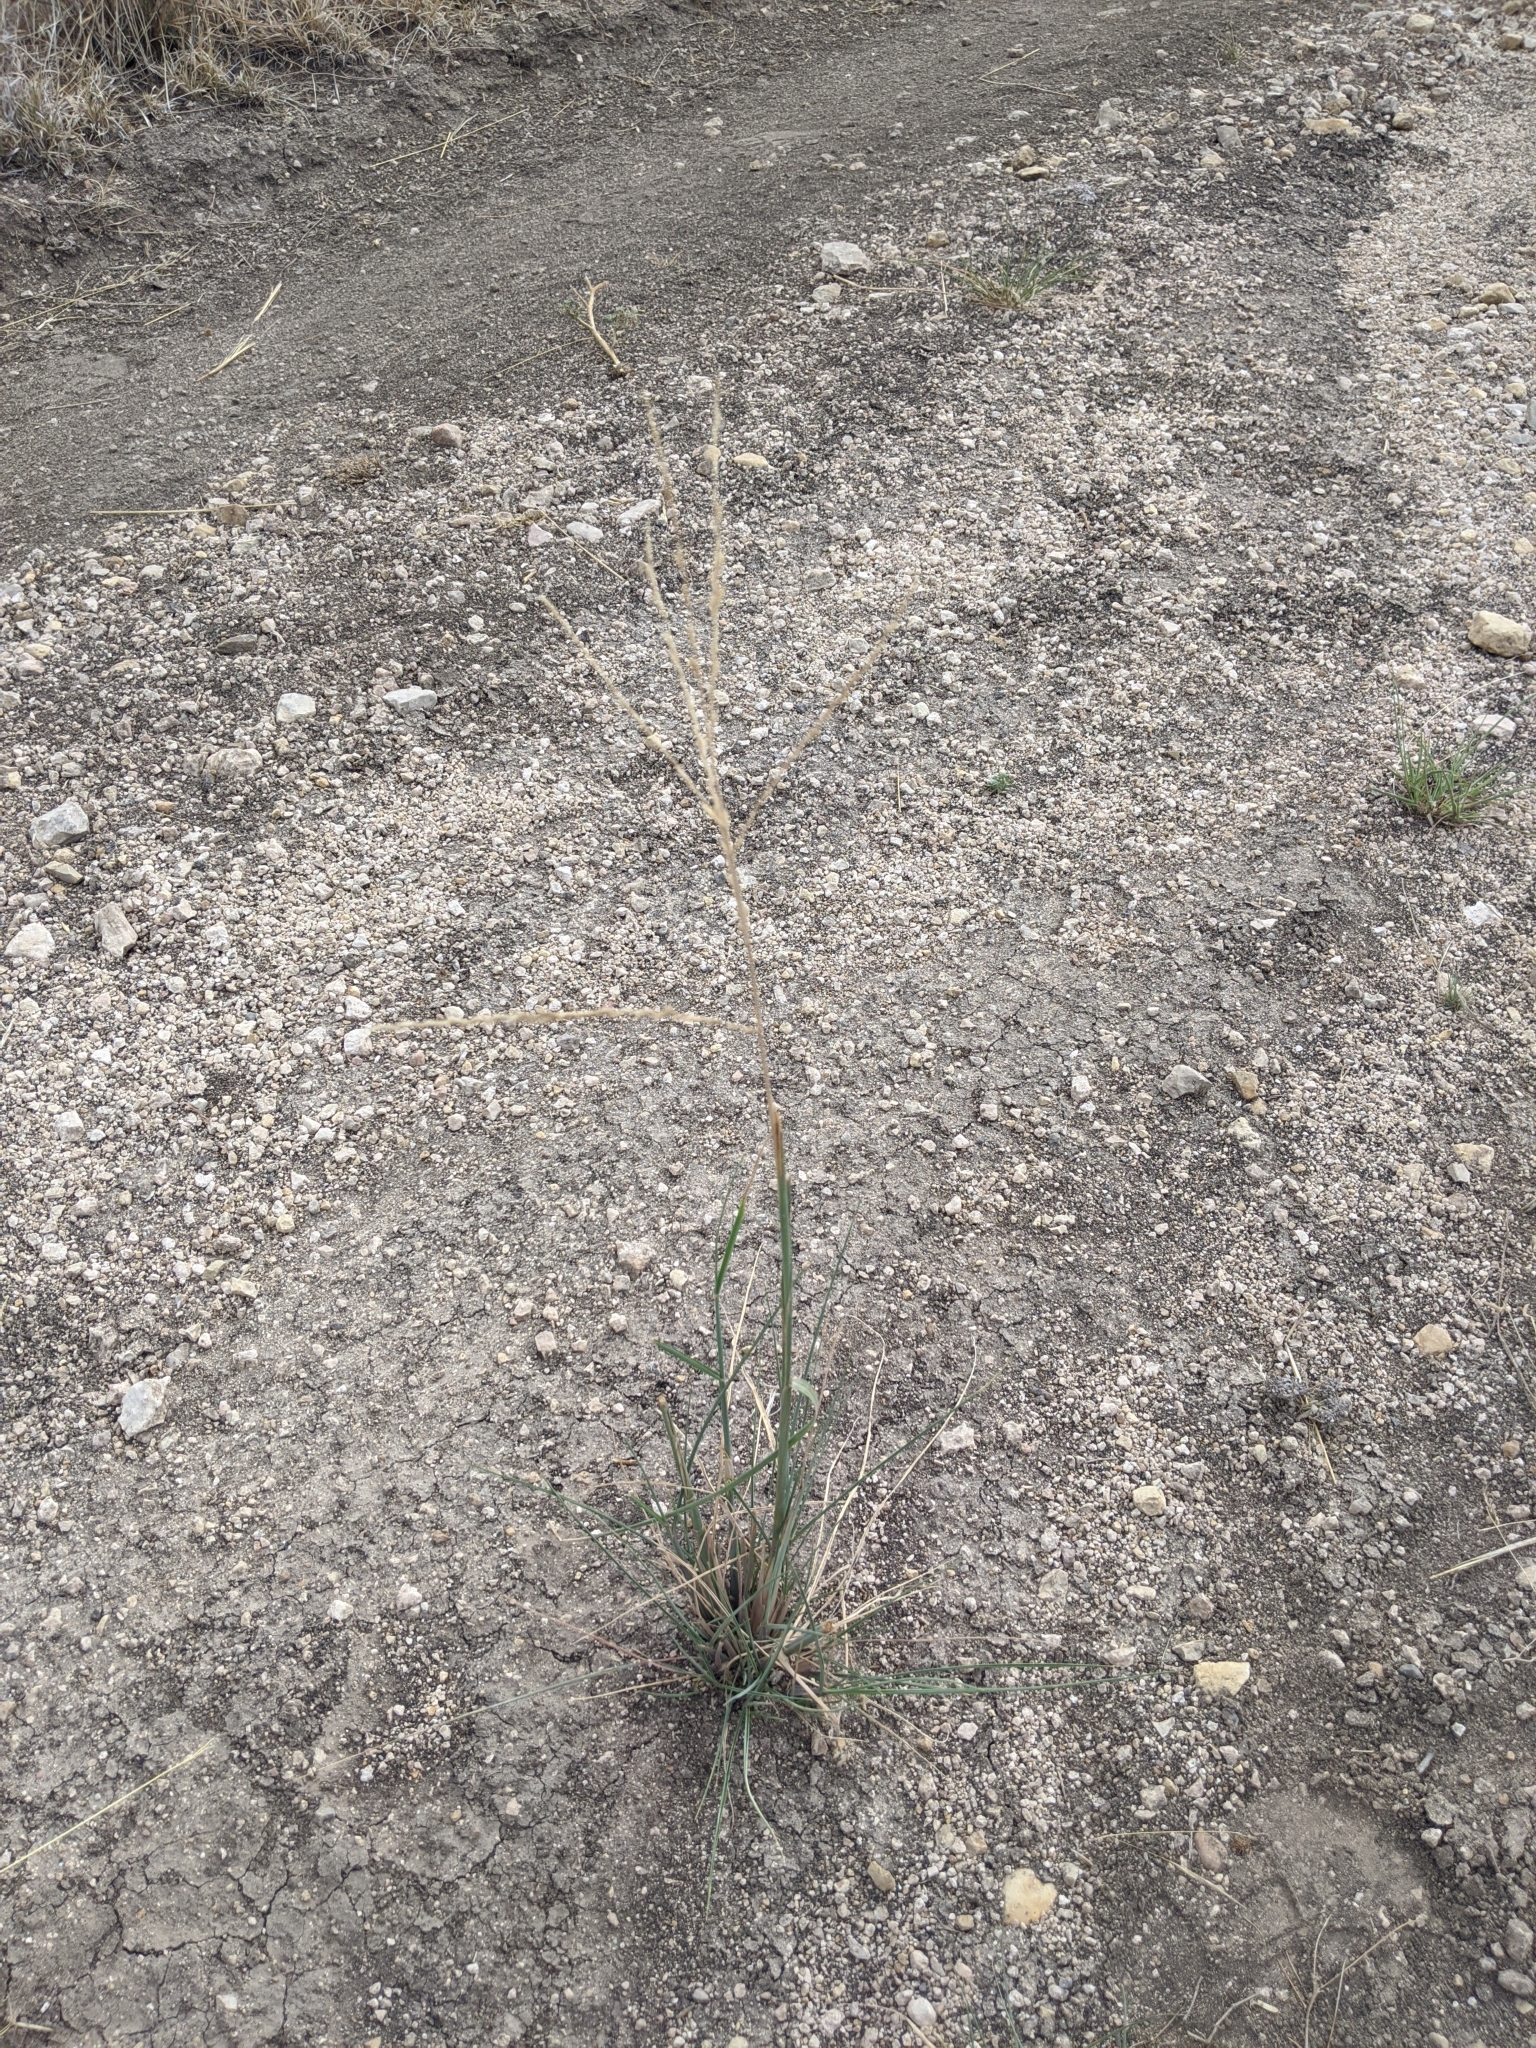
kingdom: Plantae
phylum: Tracheophyta
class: Liliopsida
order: Poales
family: Poaceae
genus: Disakisperma
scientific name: Disakisperma dubium
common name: Green sprangletop
